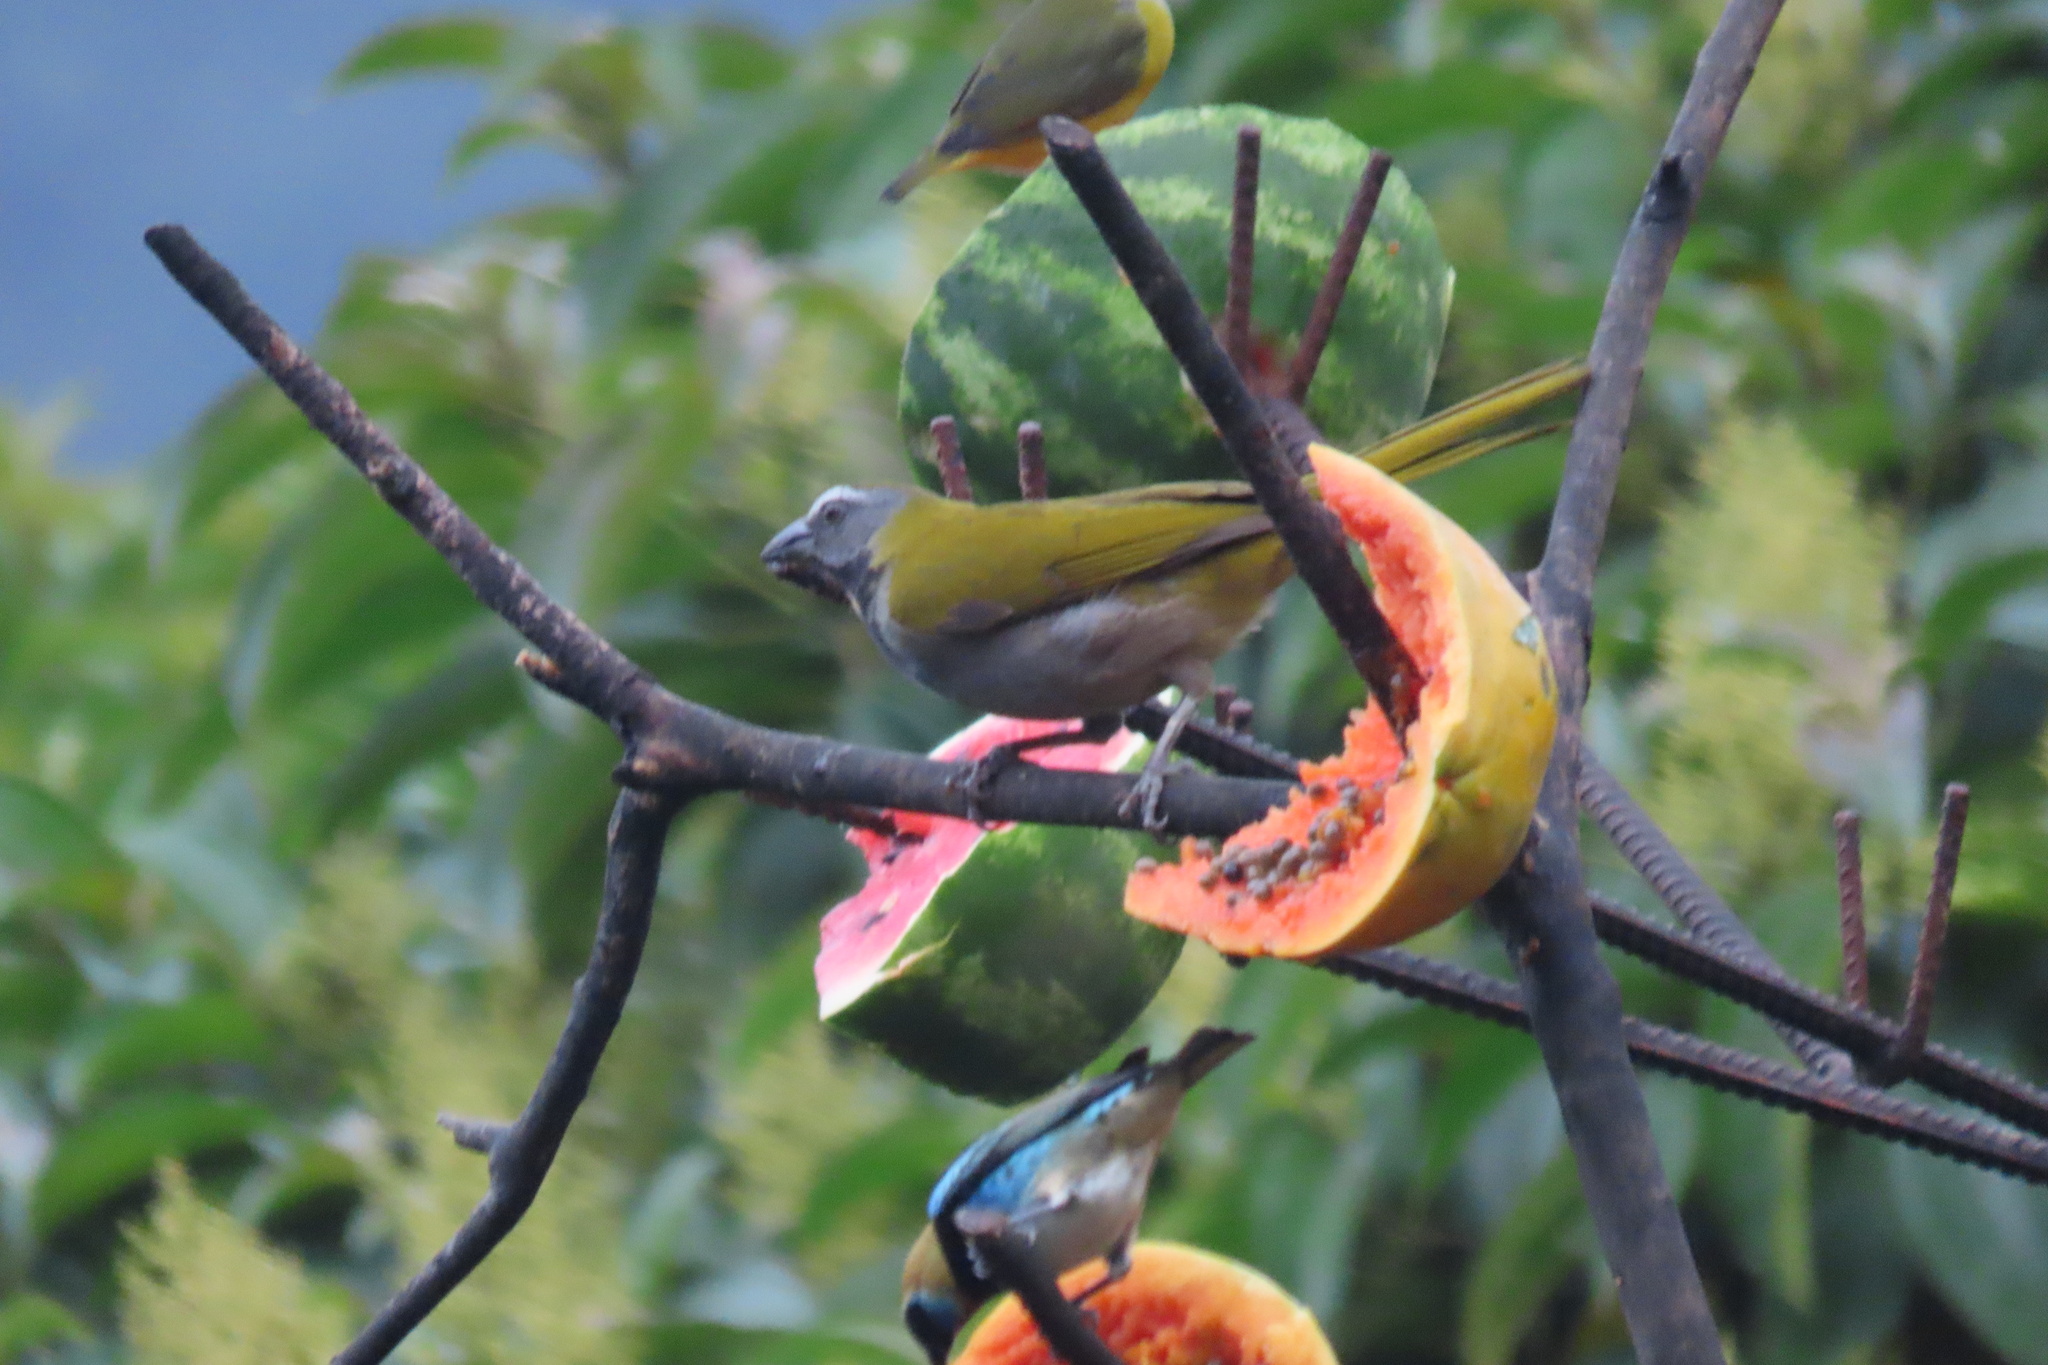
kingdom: Animalia
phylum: Chordata
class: Aves
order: Passeriformes
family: Thraupidae
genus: Saltator
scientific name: Saltator maximus
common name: Buff-throated saltator
